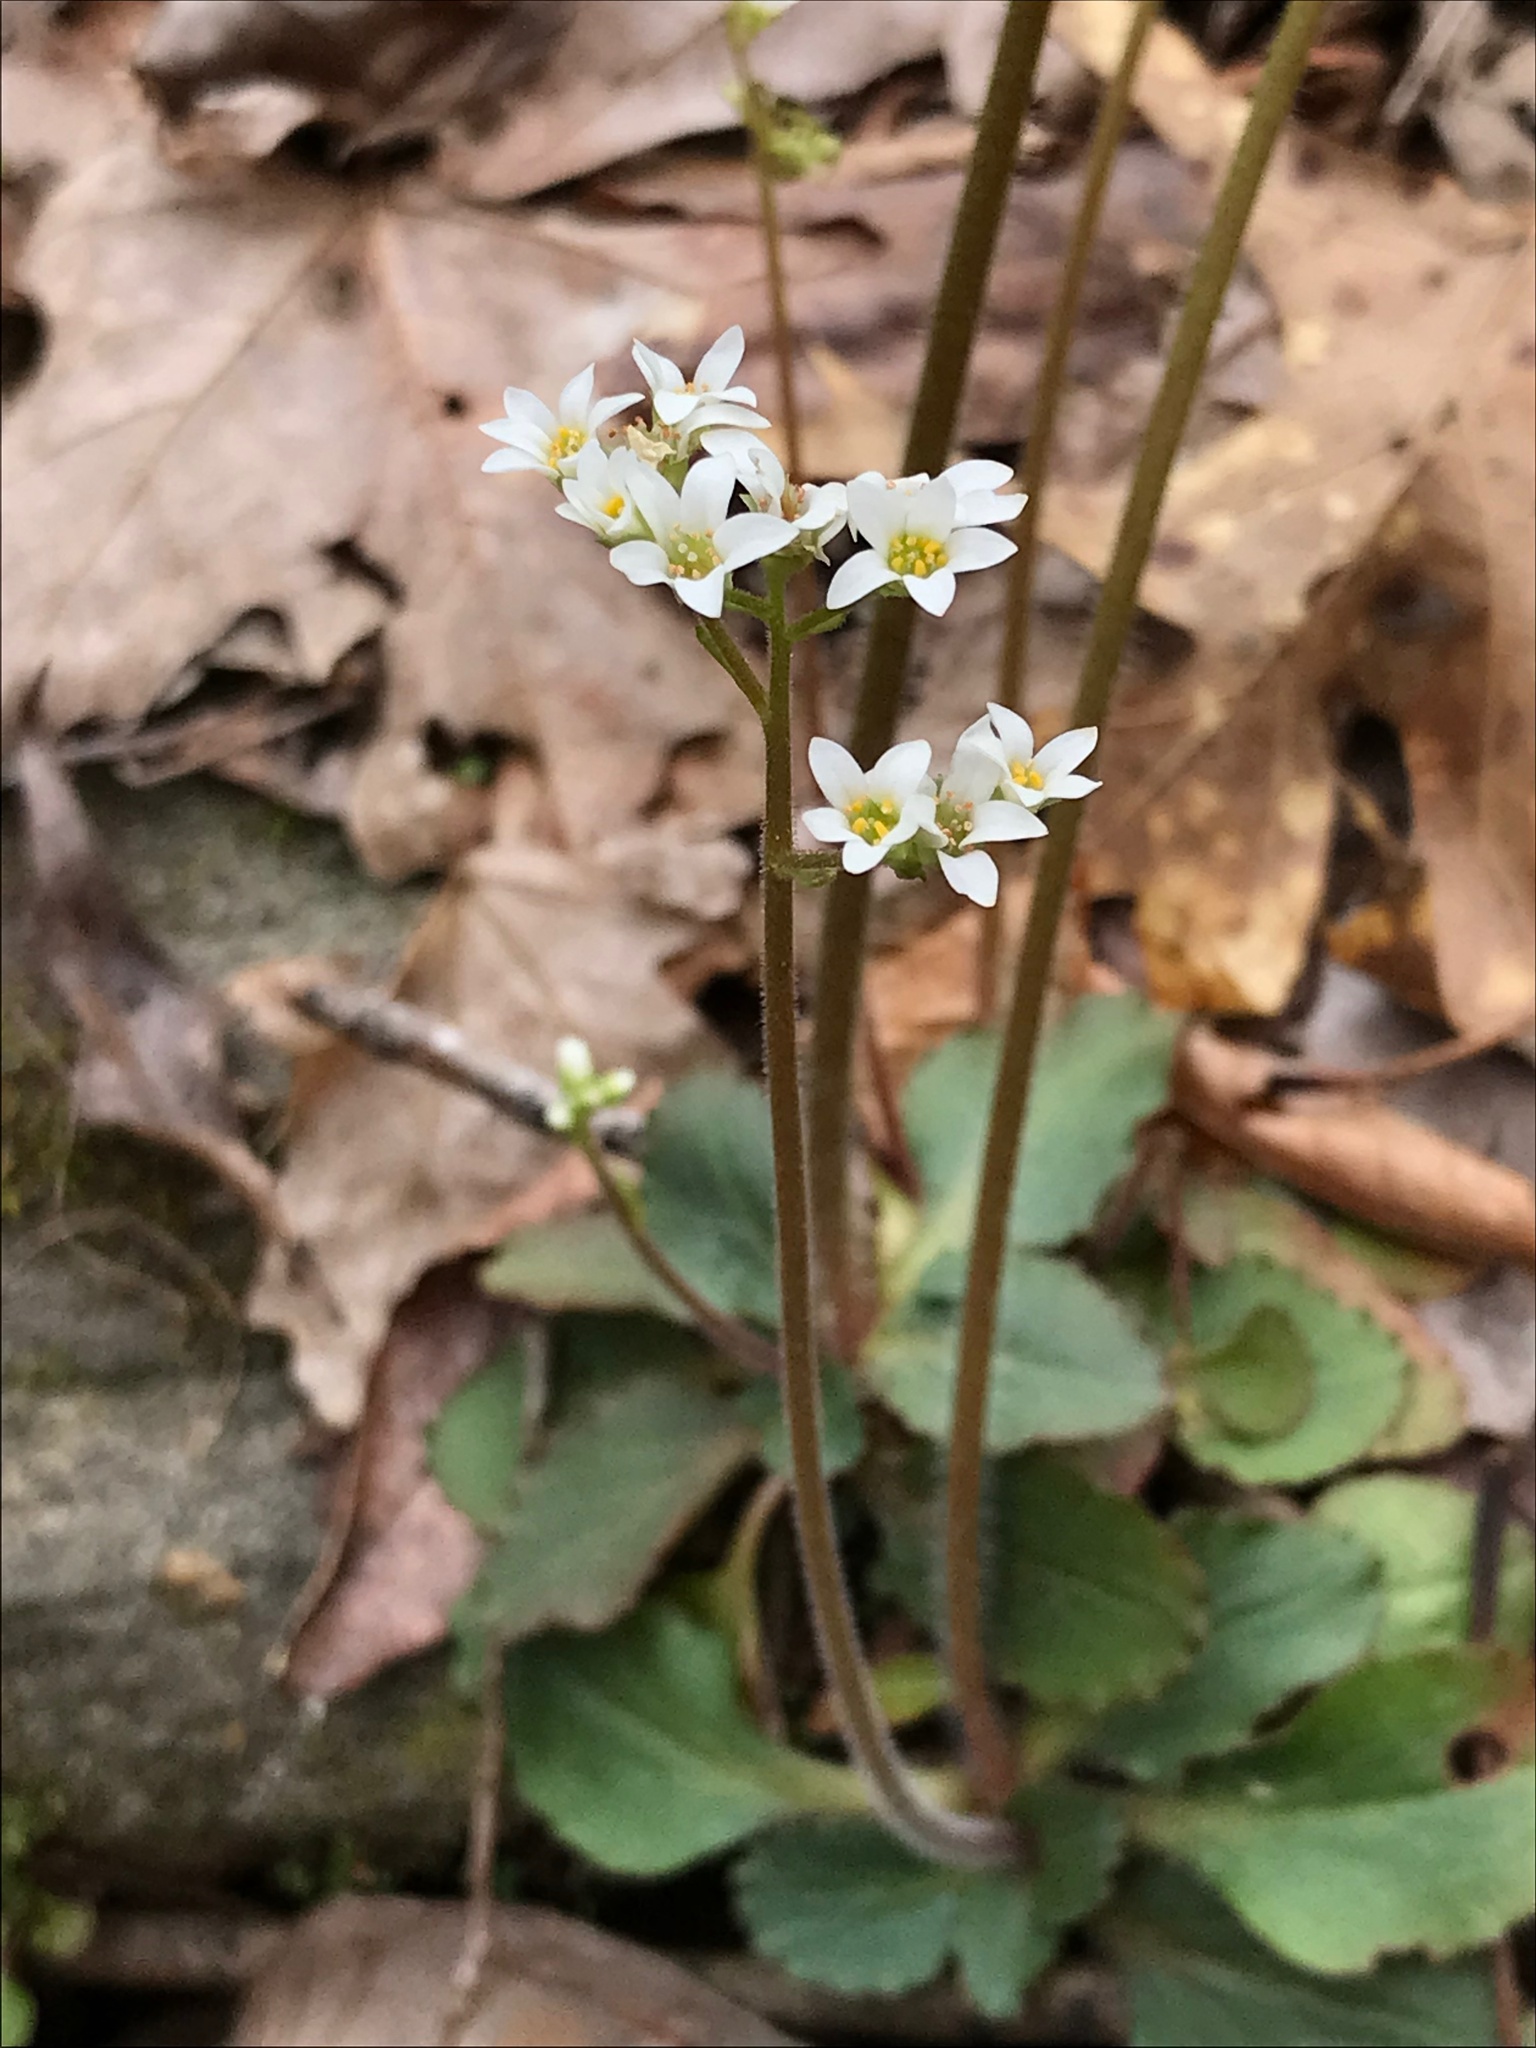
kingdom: Plantae
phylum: Tracheophyta
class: Magnoliopsida
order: Saxifragales
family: Saxifragaceae
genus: Micranthes
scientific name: Micranthes virginiensis
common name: Early saxifrage
